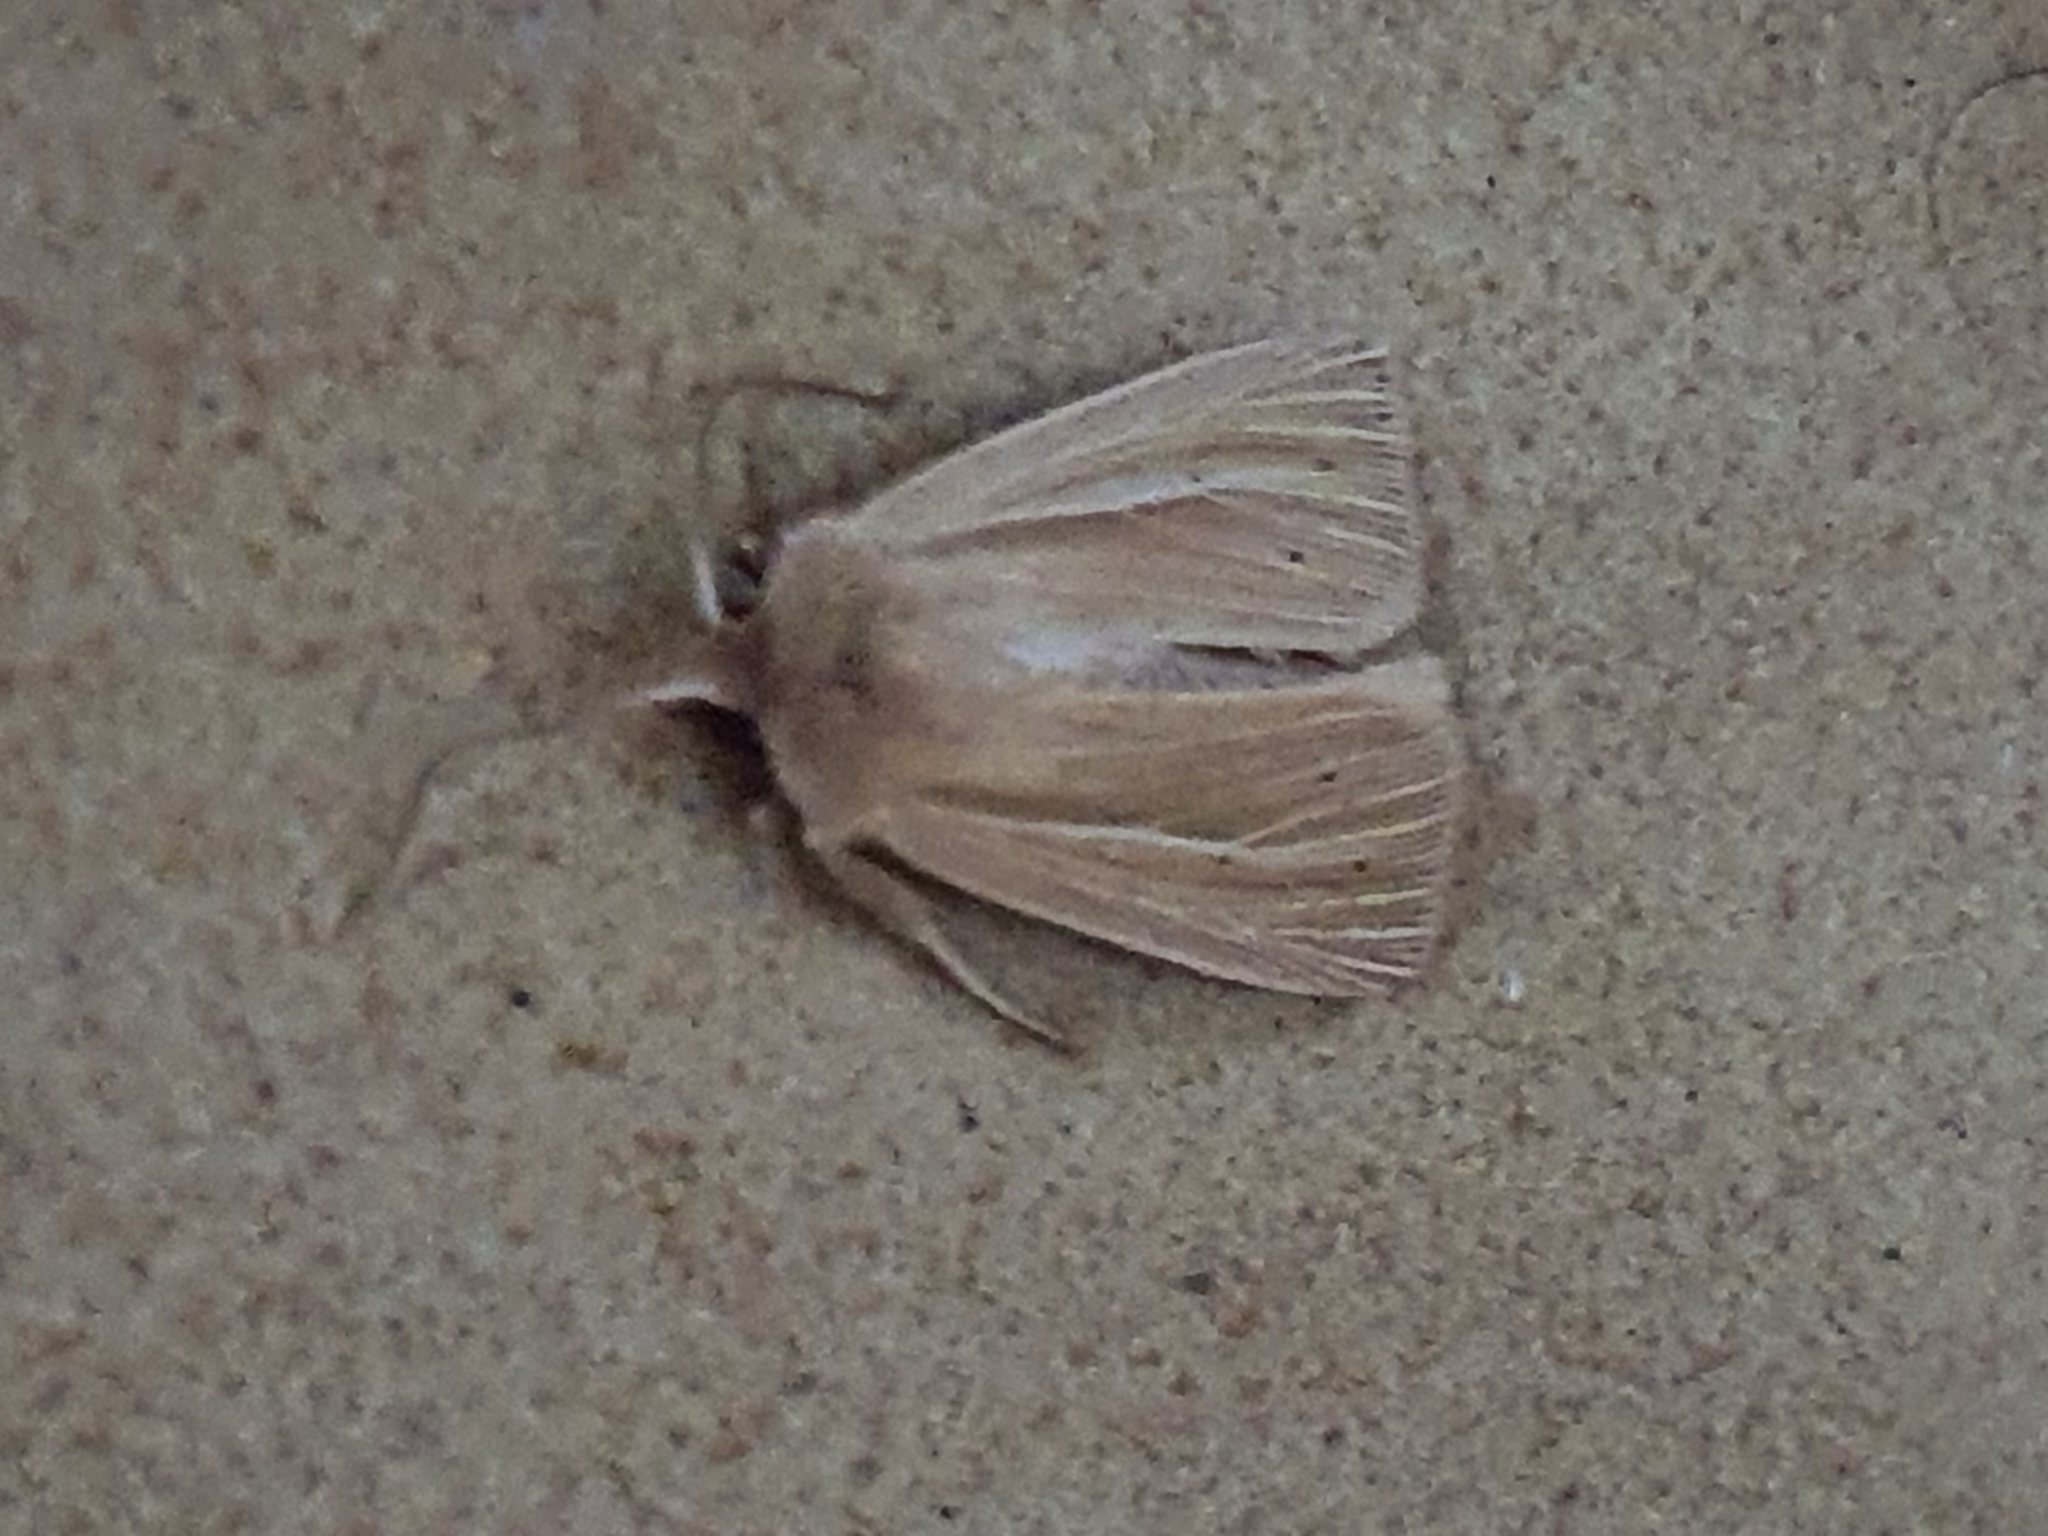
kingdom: Animalia
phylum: Arthropoda
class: Insecta
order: Lepidoptera
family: Noctuidae
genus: Mythimna
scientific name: Mythimna pallens
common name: Common wainscot
